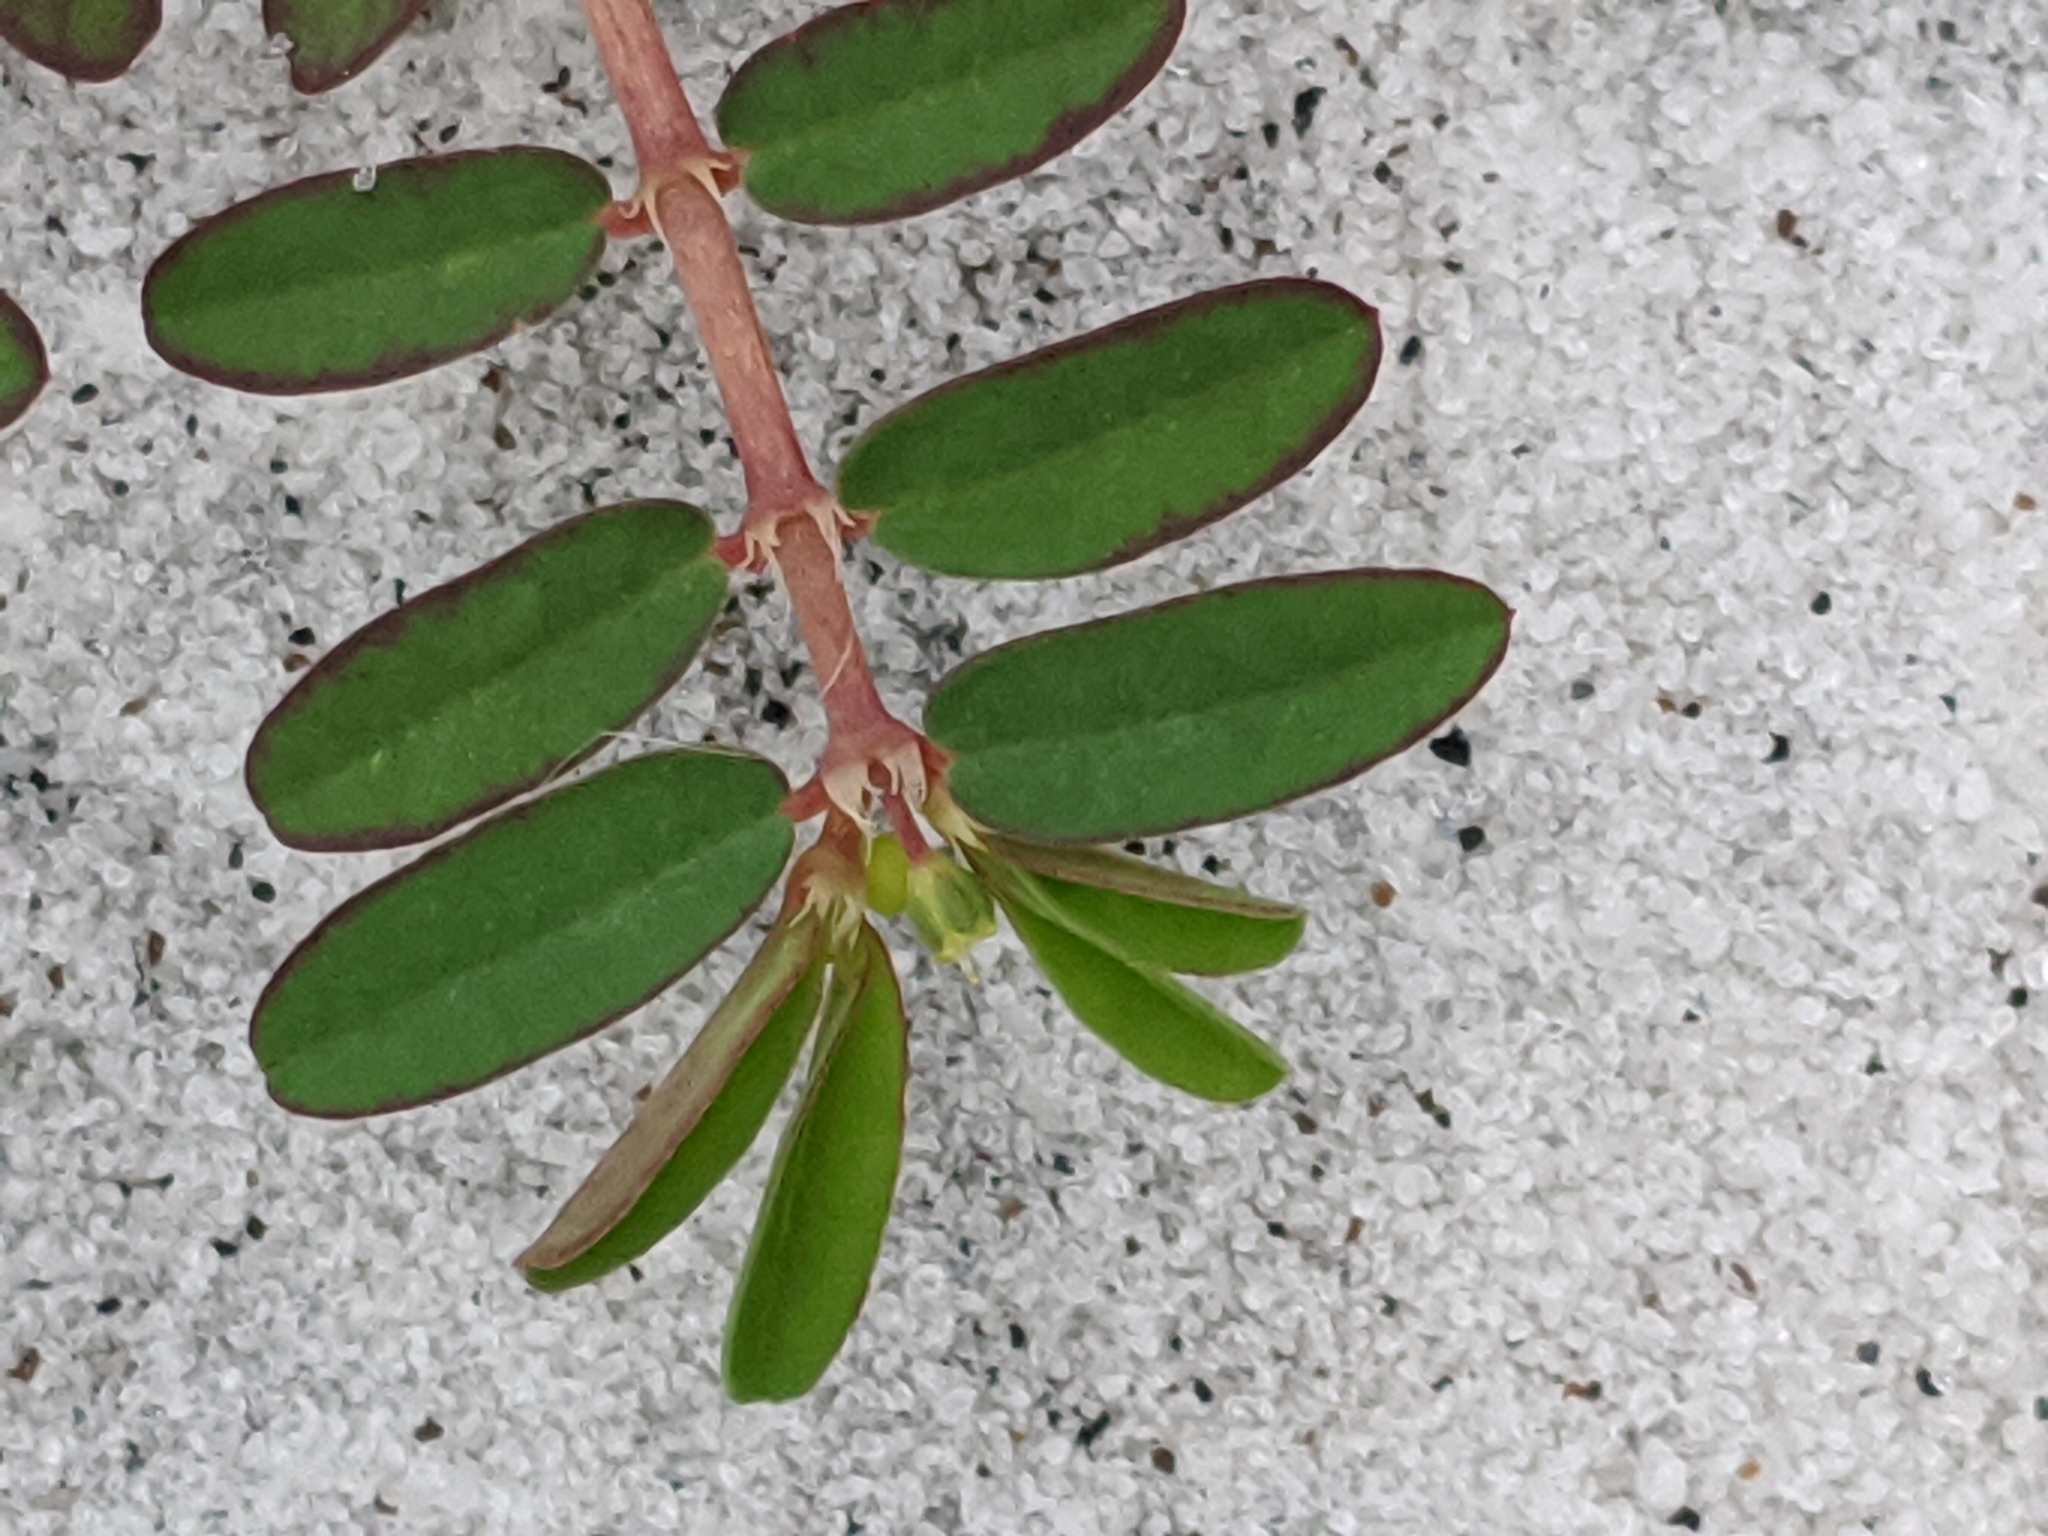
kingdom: Plantae
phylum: Tracheophyta
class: Magnoliopsida
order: Malpighiales
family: Euphorbiaceae
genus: Euphorbia
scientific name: Euphorbia bombensis
